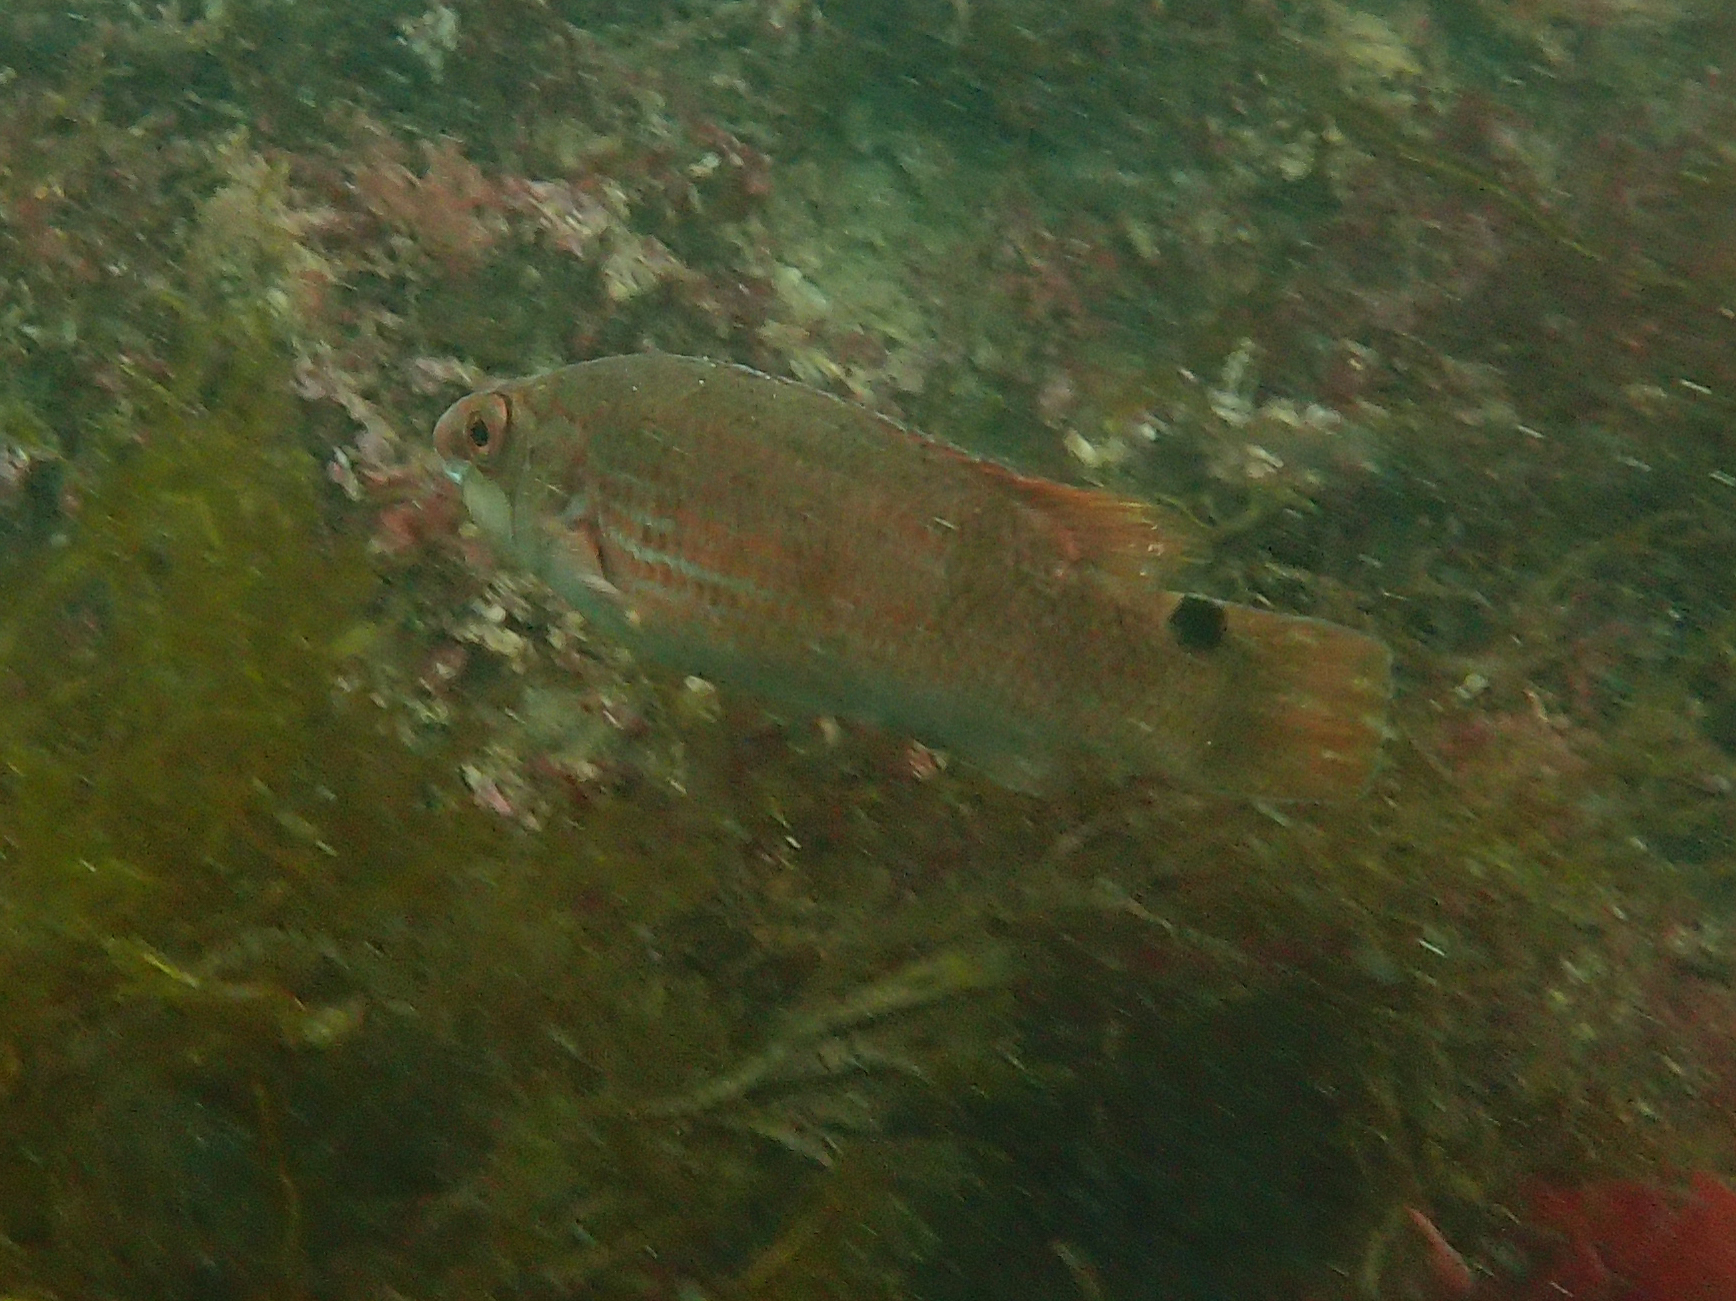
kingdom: Animalia
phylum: Chordata
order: Perciformes
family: Labridae
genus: Ctenolabrus
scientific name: Ctenolabrus rupestris
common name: Goldsinny
